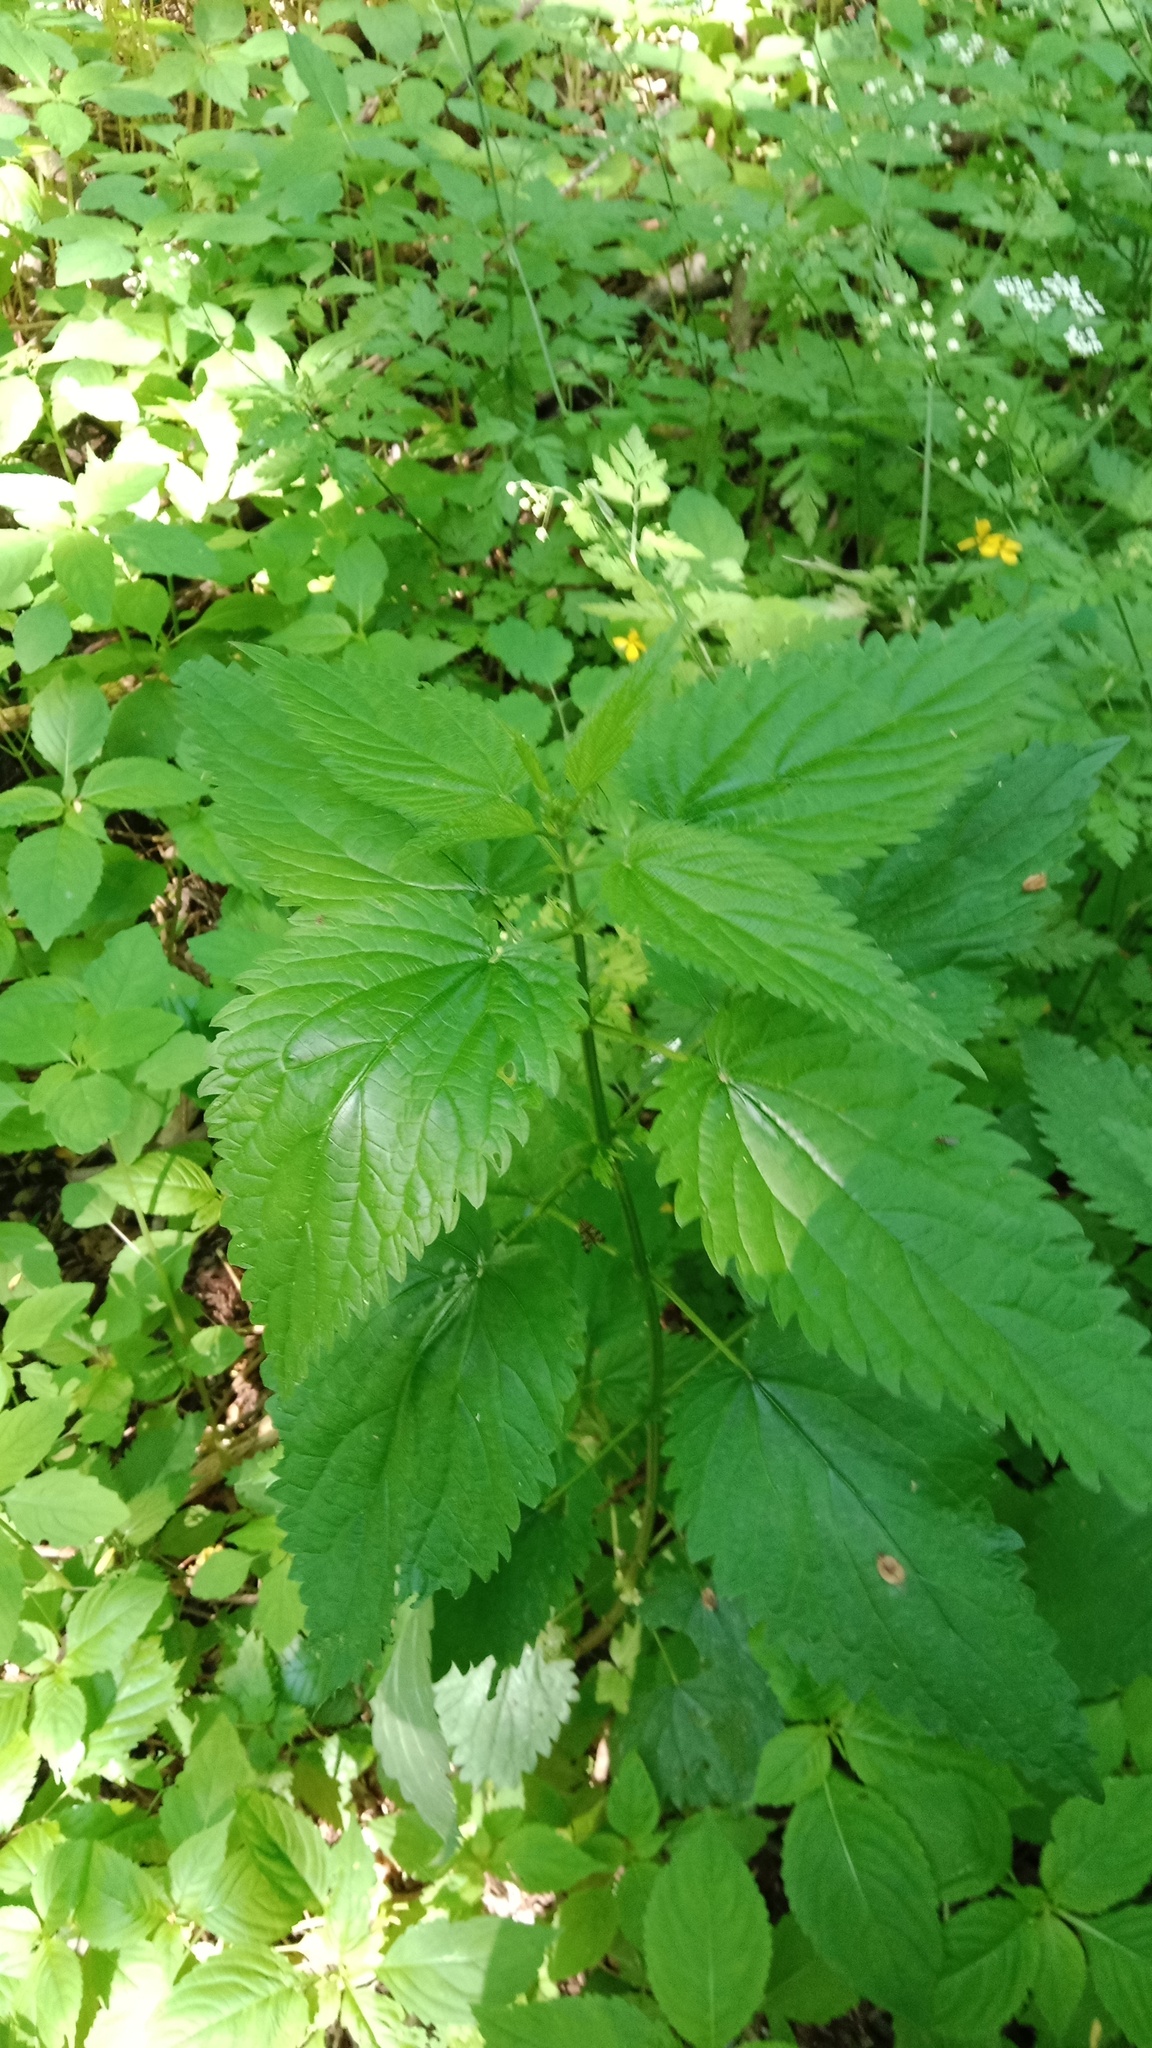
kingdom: Plantae
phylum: Tracheophyta
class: Magnoliopsida
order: Rosales
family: Urticaceae
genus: Urtica
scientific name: Urtica dioica
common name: Common nettle
